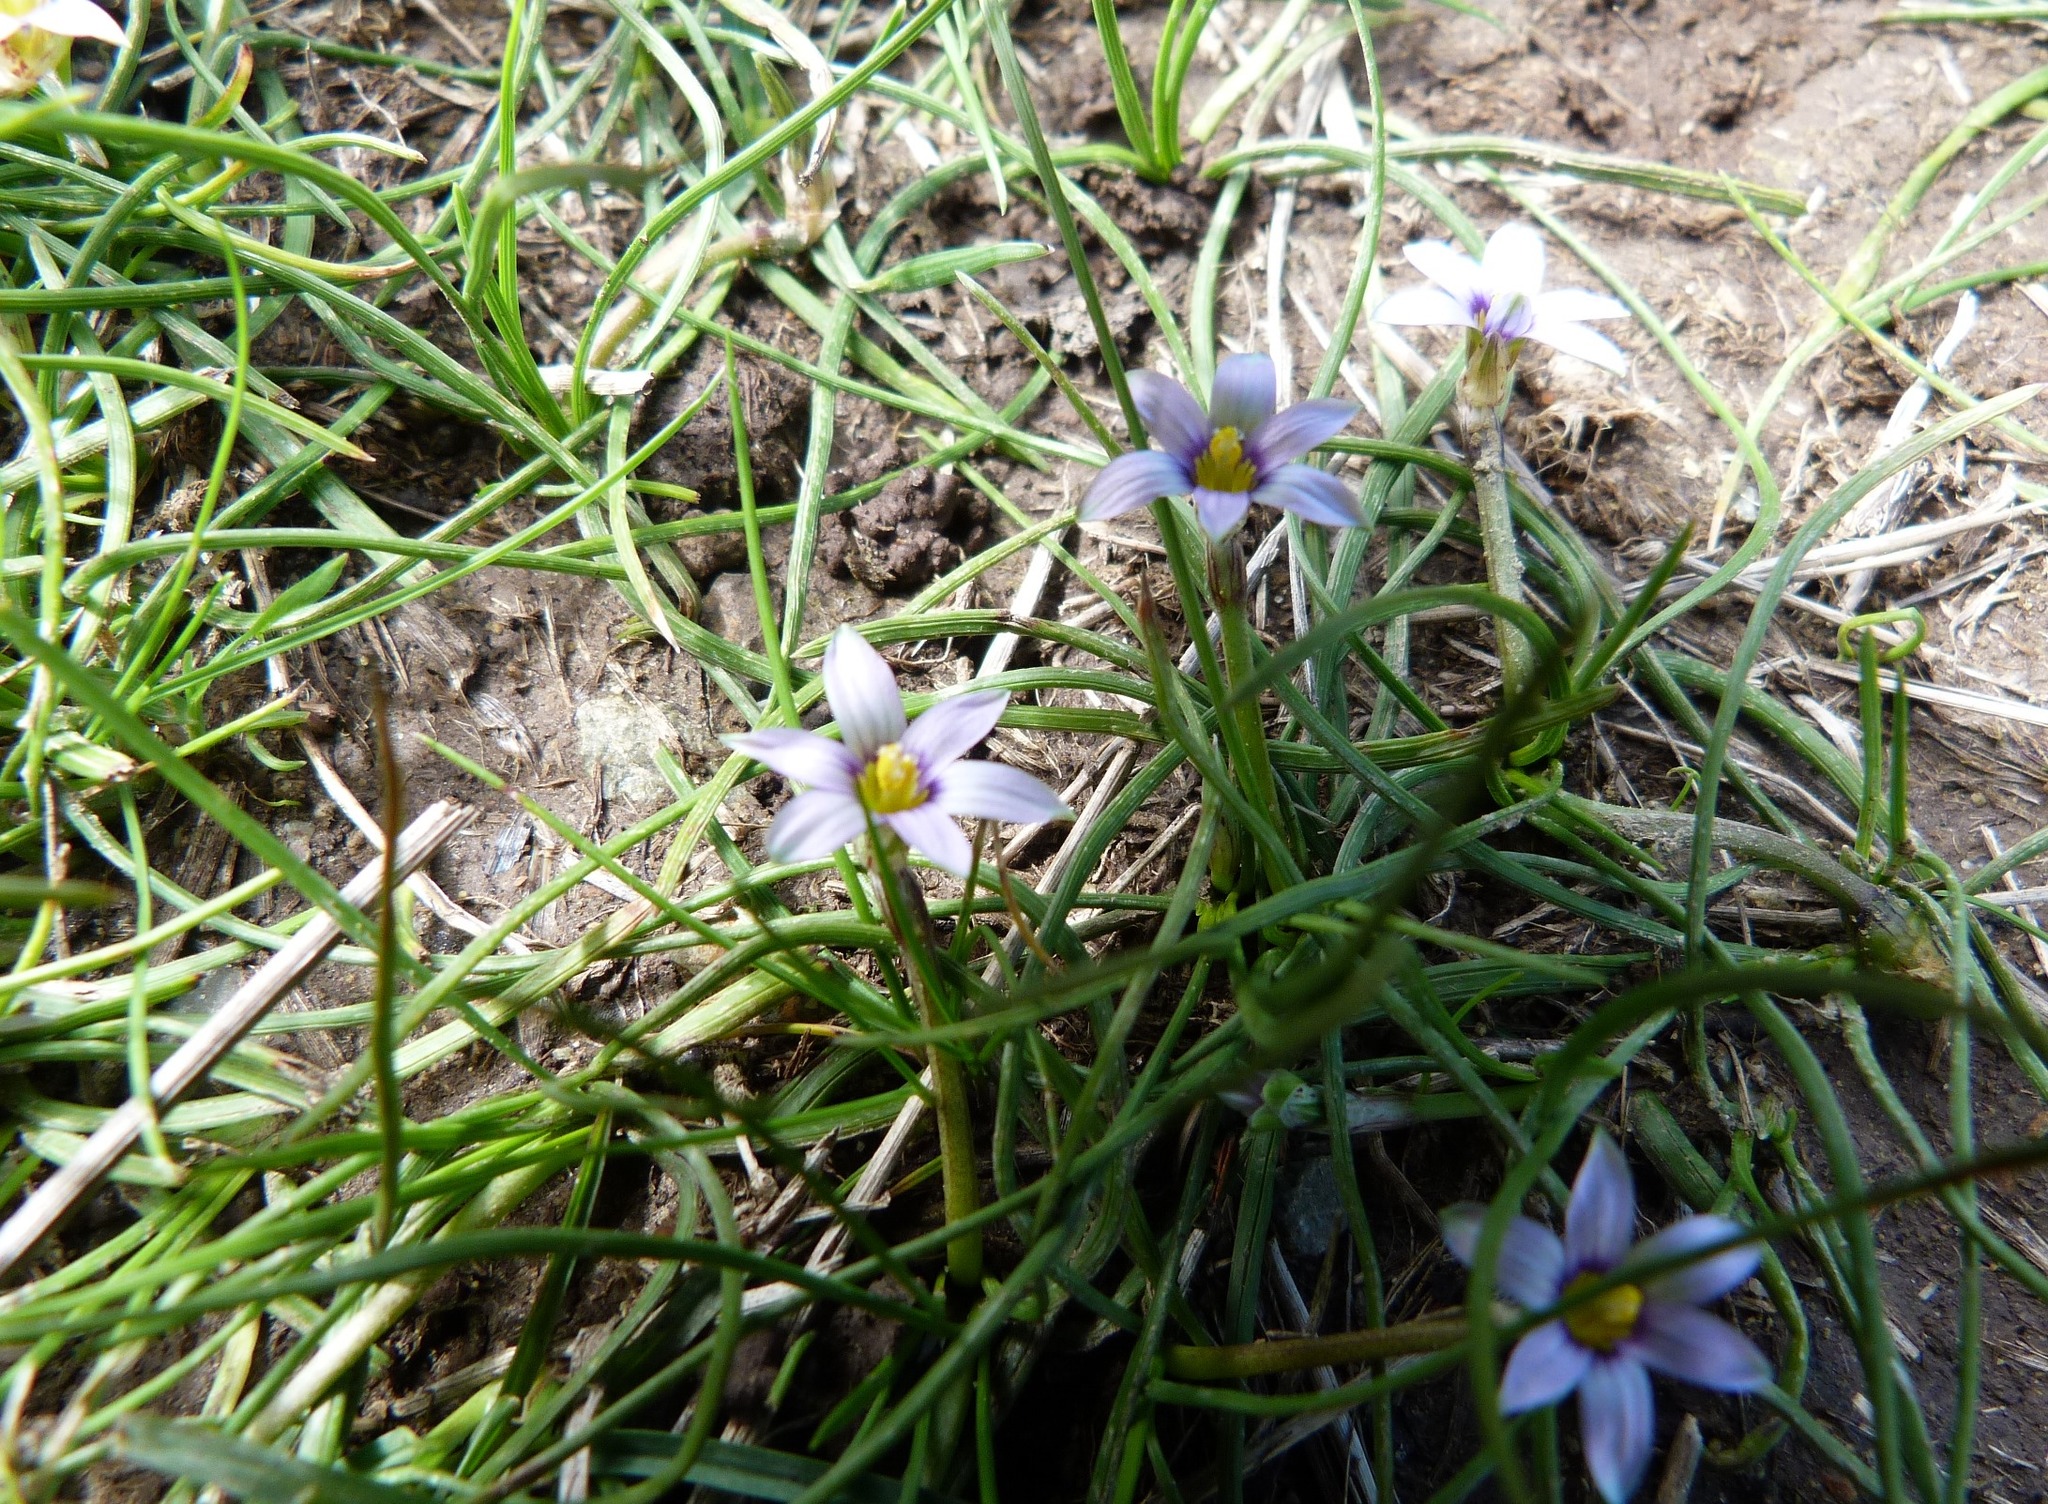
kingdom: Plantae
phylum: Tracheophyta
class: Liliopsida
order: Asparagales
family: Iridaceae
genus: Romulea
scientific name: Romulea minutiflora
